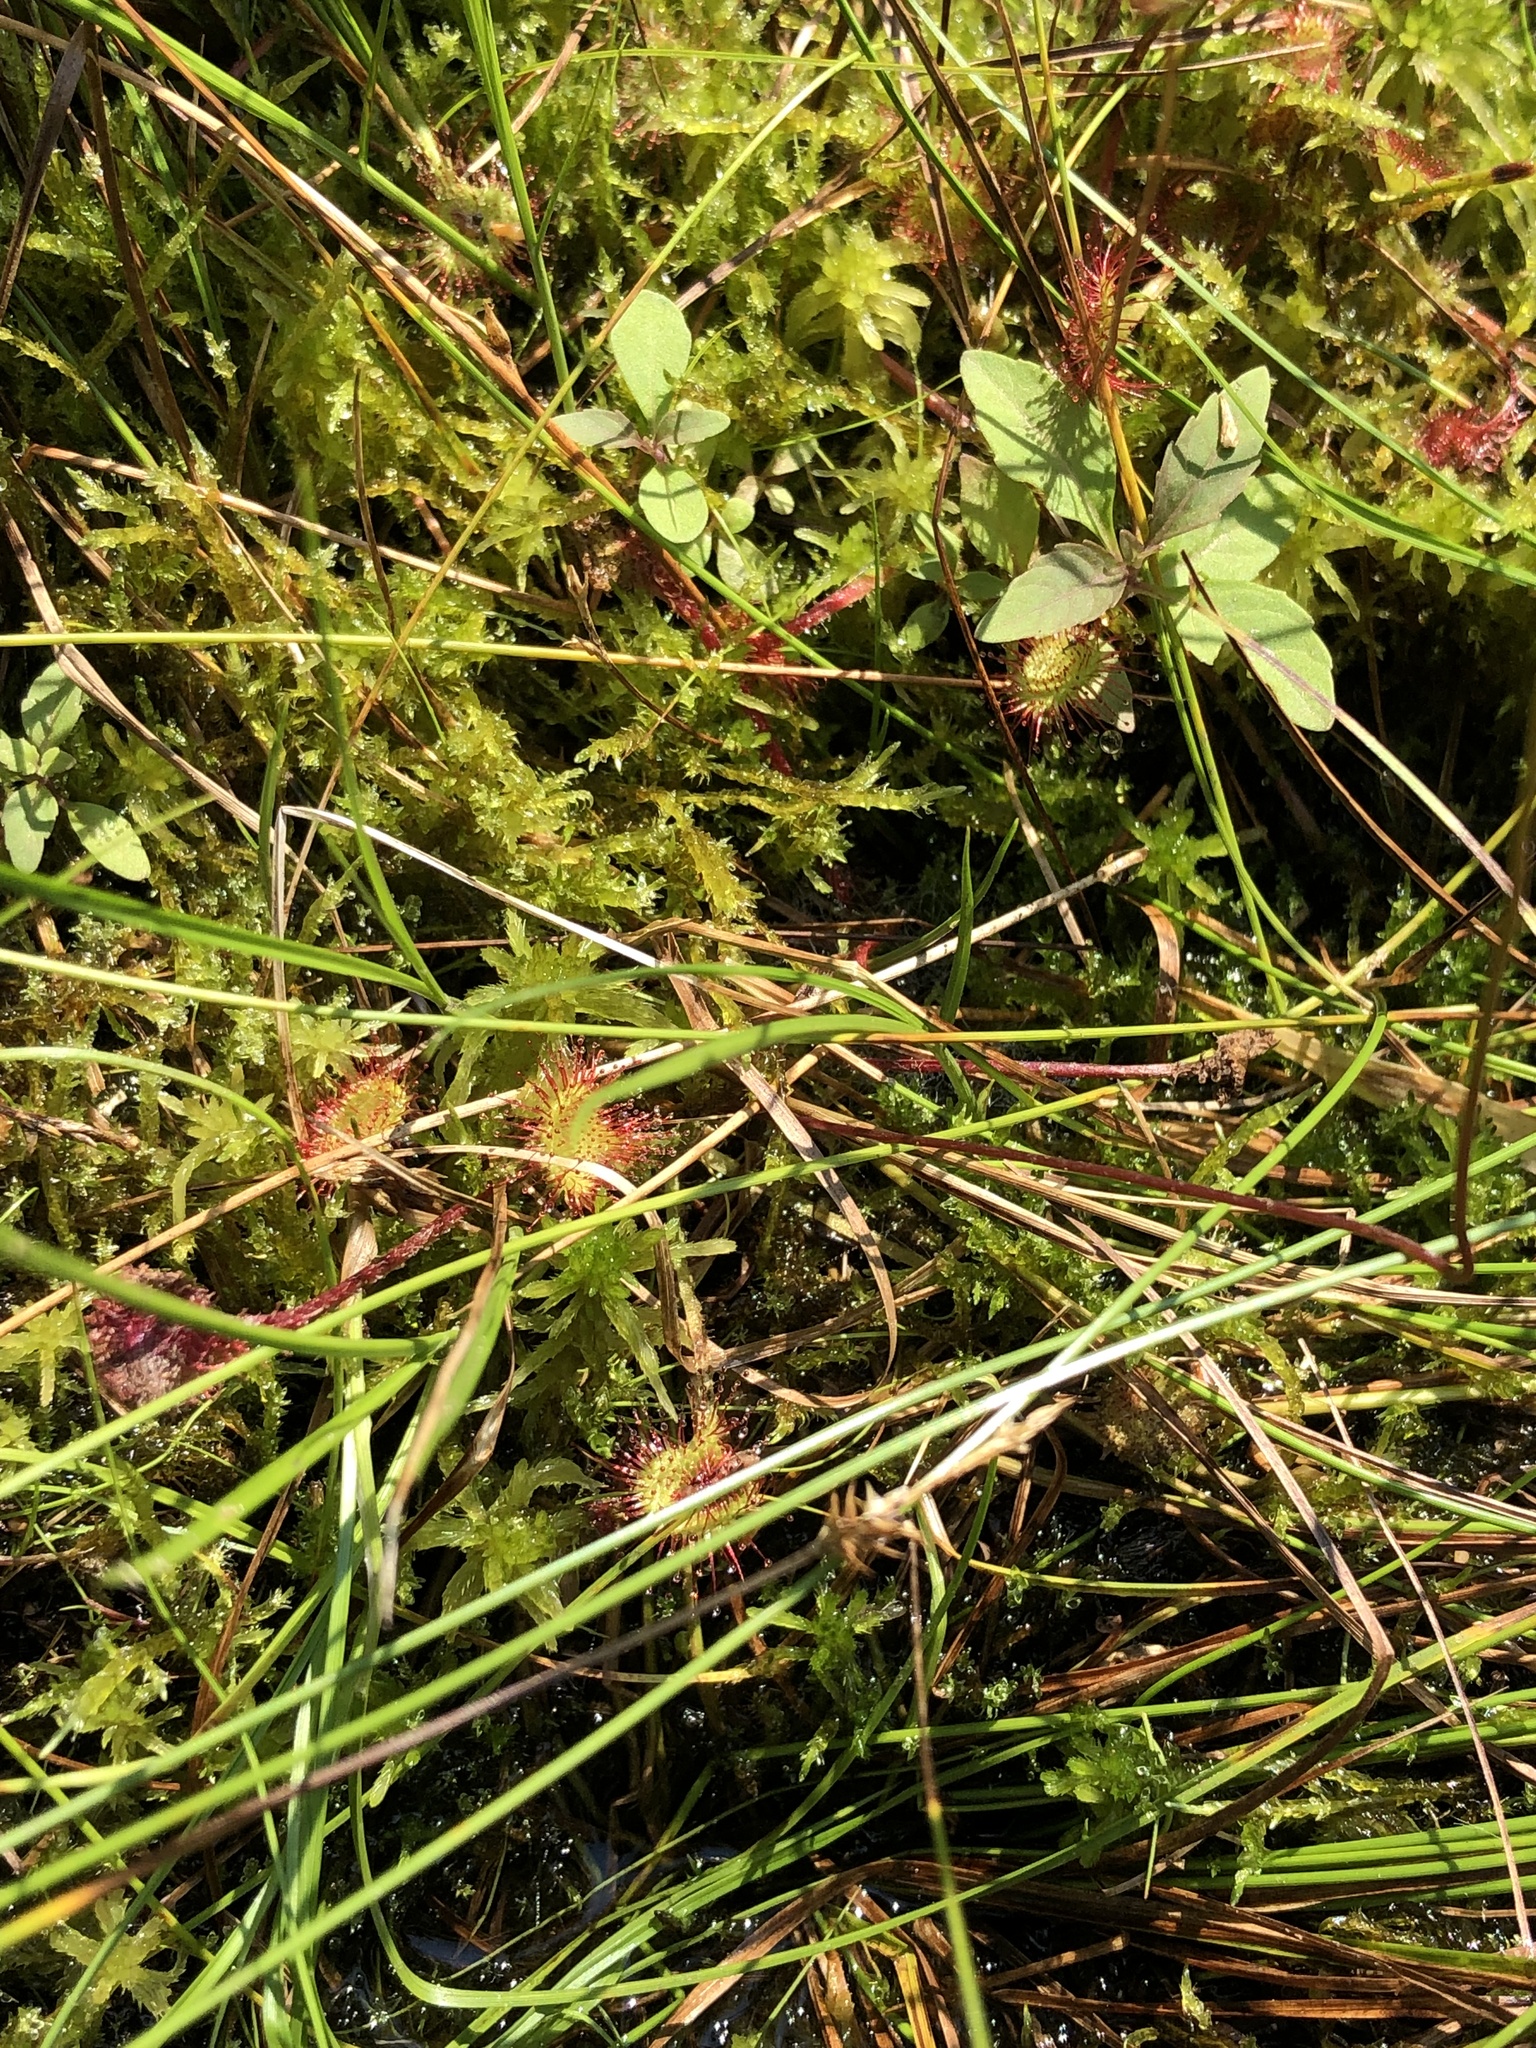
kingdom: Plantae
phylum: Tracheophyta
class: Magnoliopsida
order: Caryophyllales
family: Droseraceae
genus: Drosera
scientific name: Drosera rotundifolia
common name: Round-leaved sundew
